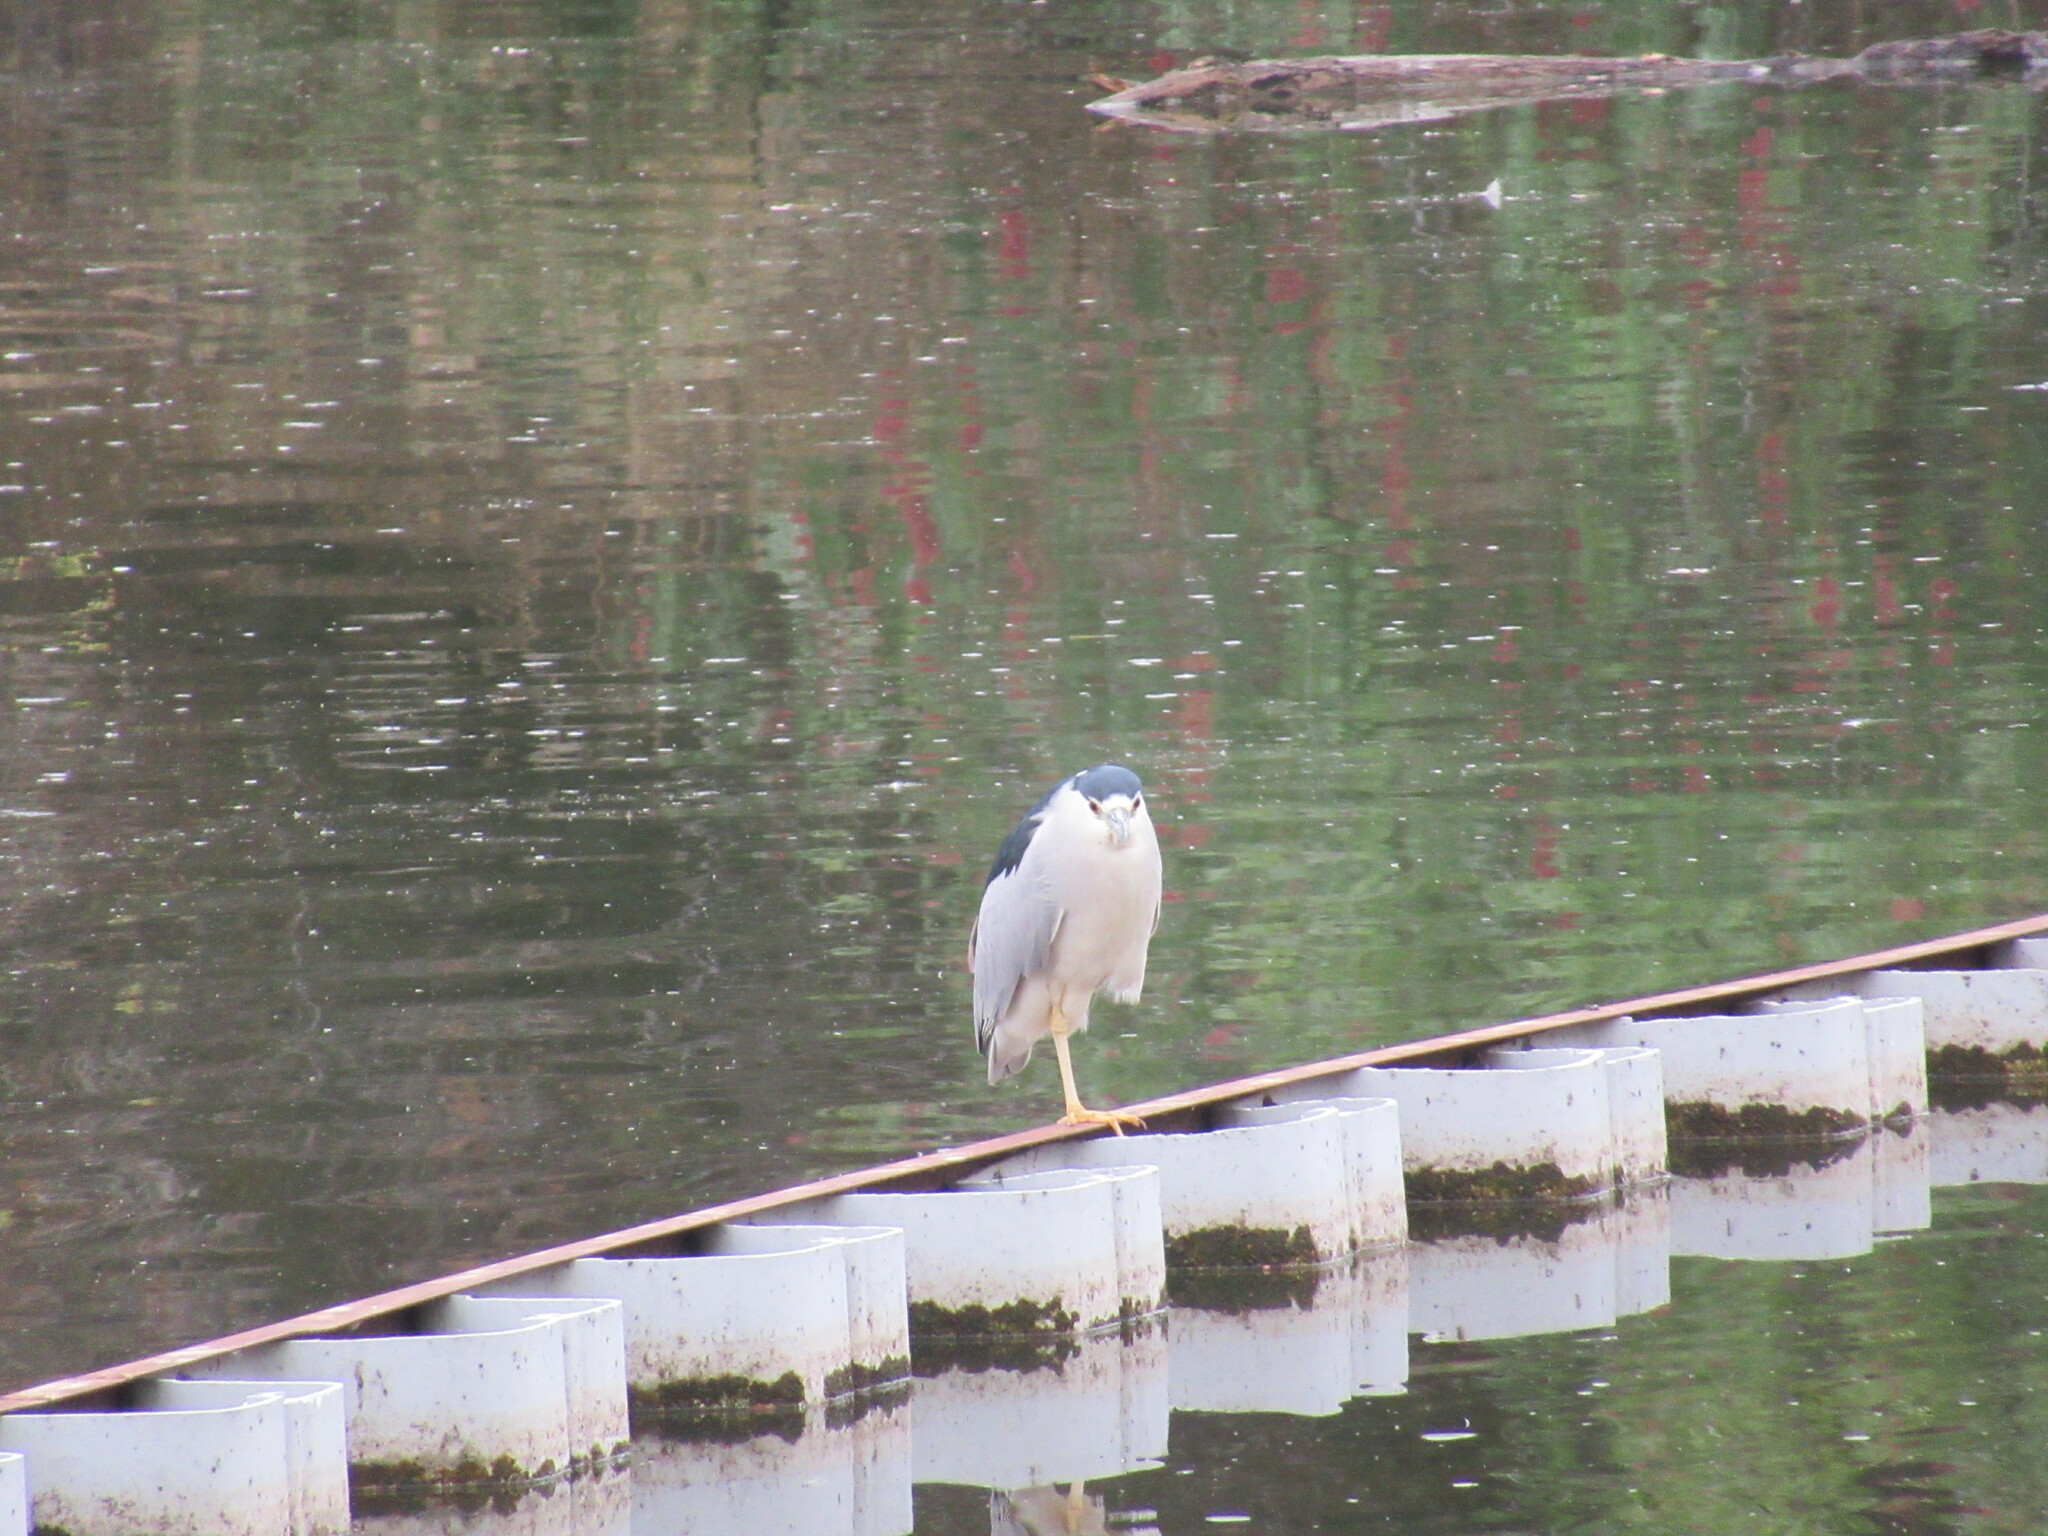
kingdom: Animalia
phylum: Chordata
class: Aves
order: Pelecaniformes
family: Ardeidae
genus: Nycticorax
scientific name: Nycticorax nycticorax
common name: Black-crowned night heron
